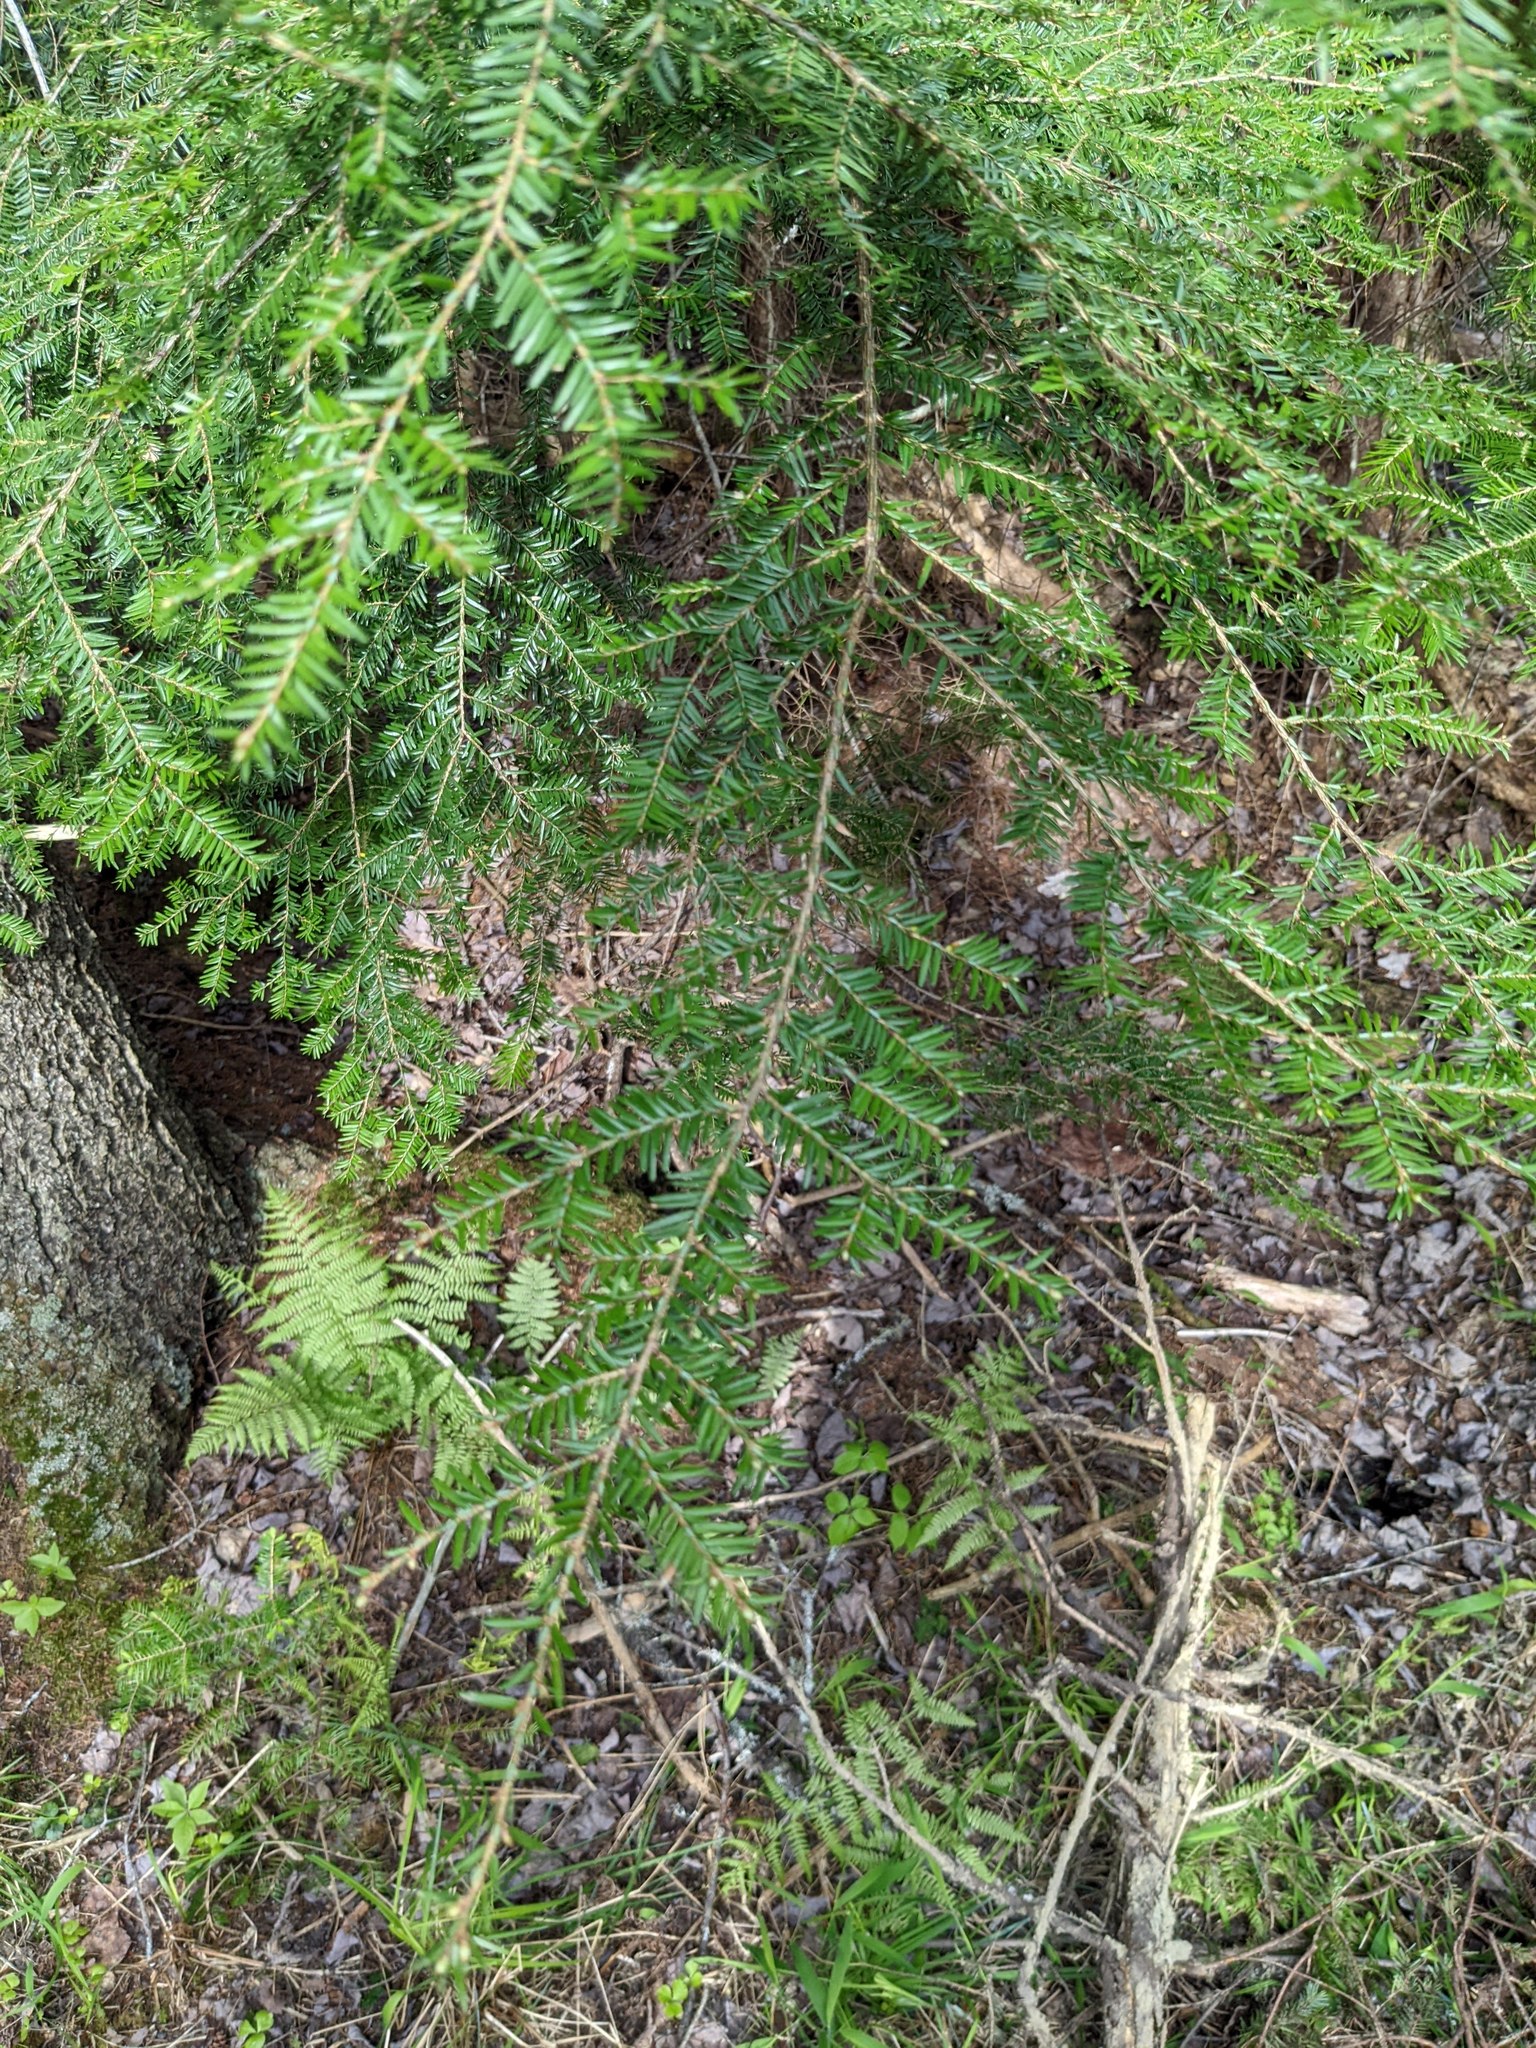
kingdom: Plantae
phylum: Tracheophyta
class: Pinopsida
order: Pinales
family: Pinaceae
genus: Tsuga
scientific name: Tsuga canadensis
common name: Eastern hemlock
